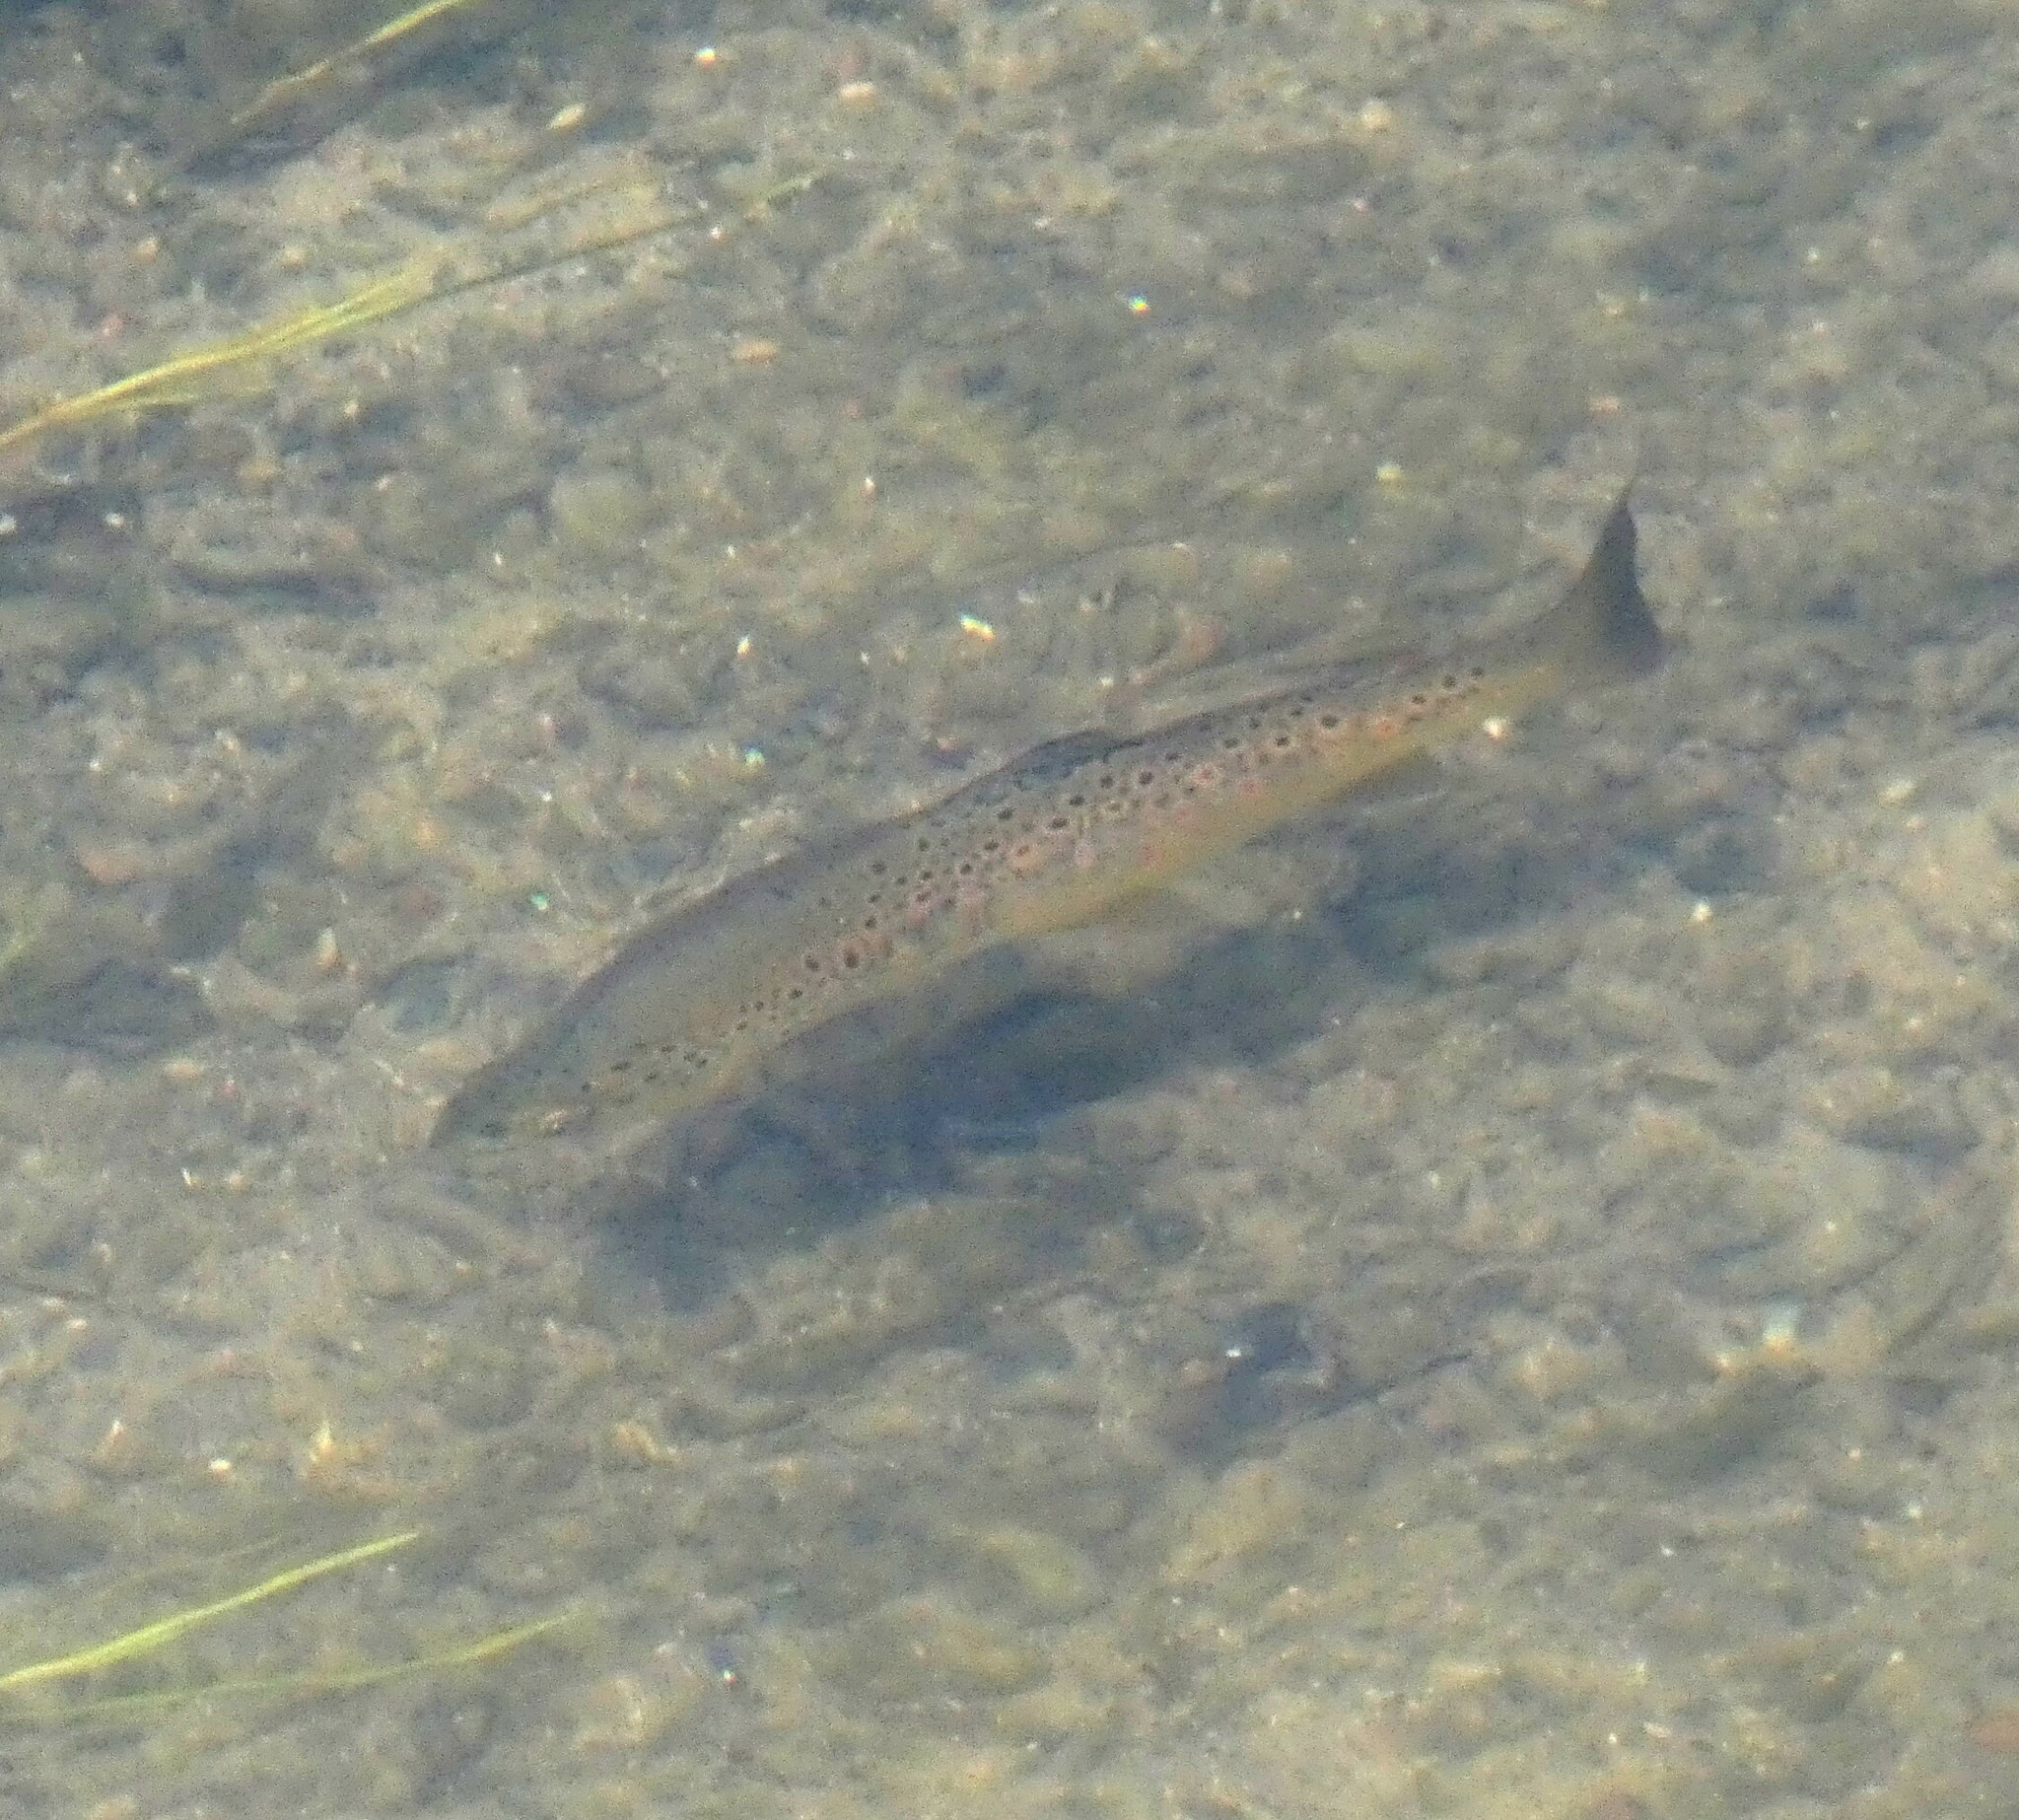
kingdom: Animalia
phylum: Chordata
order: Salmoniformes
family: Salmonidae
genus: Salmo
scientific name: Salmo trutta
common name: Brown trout
